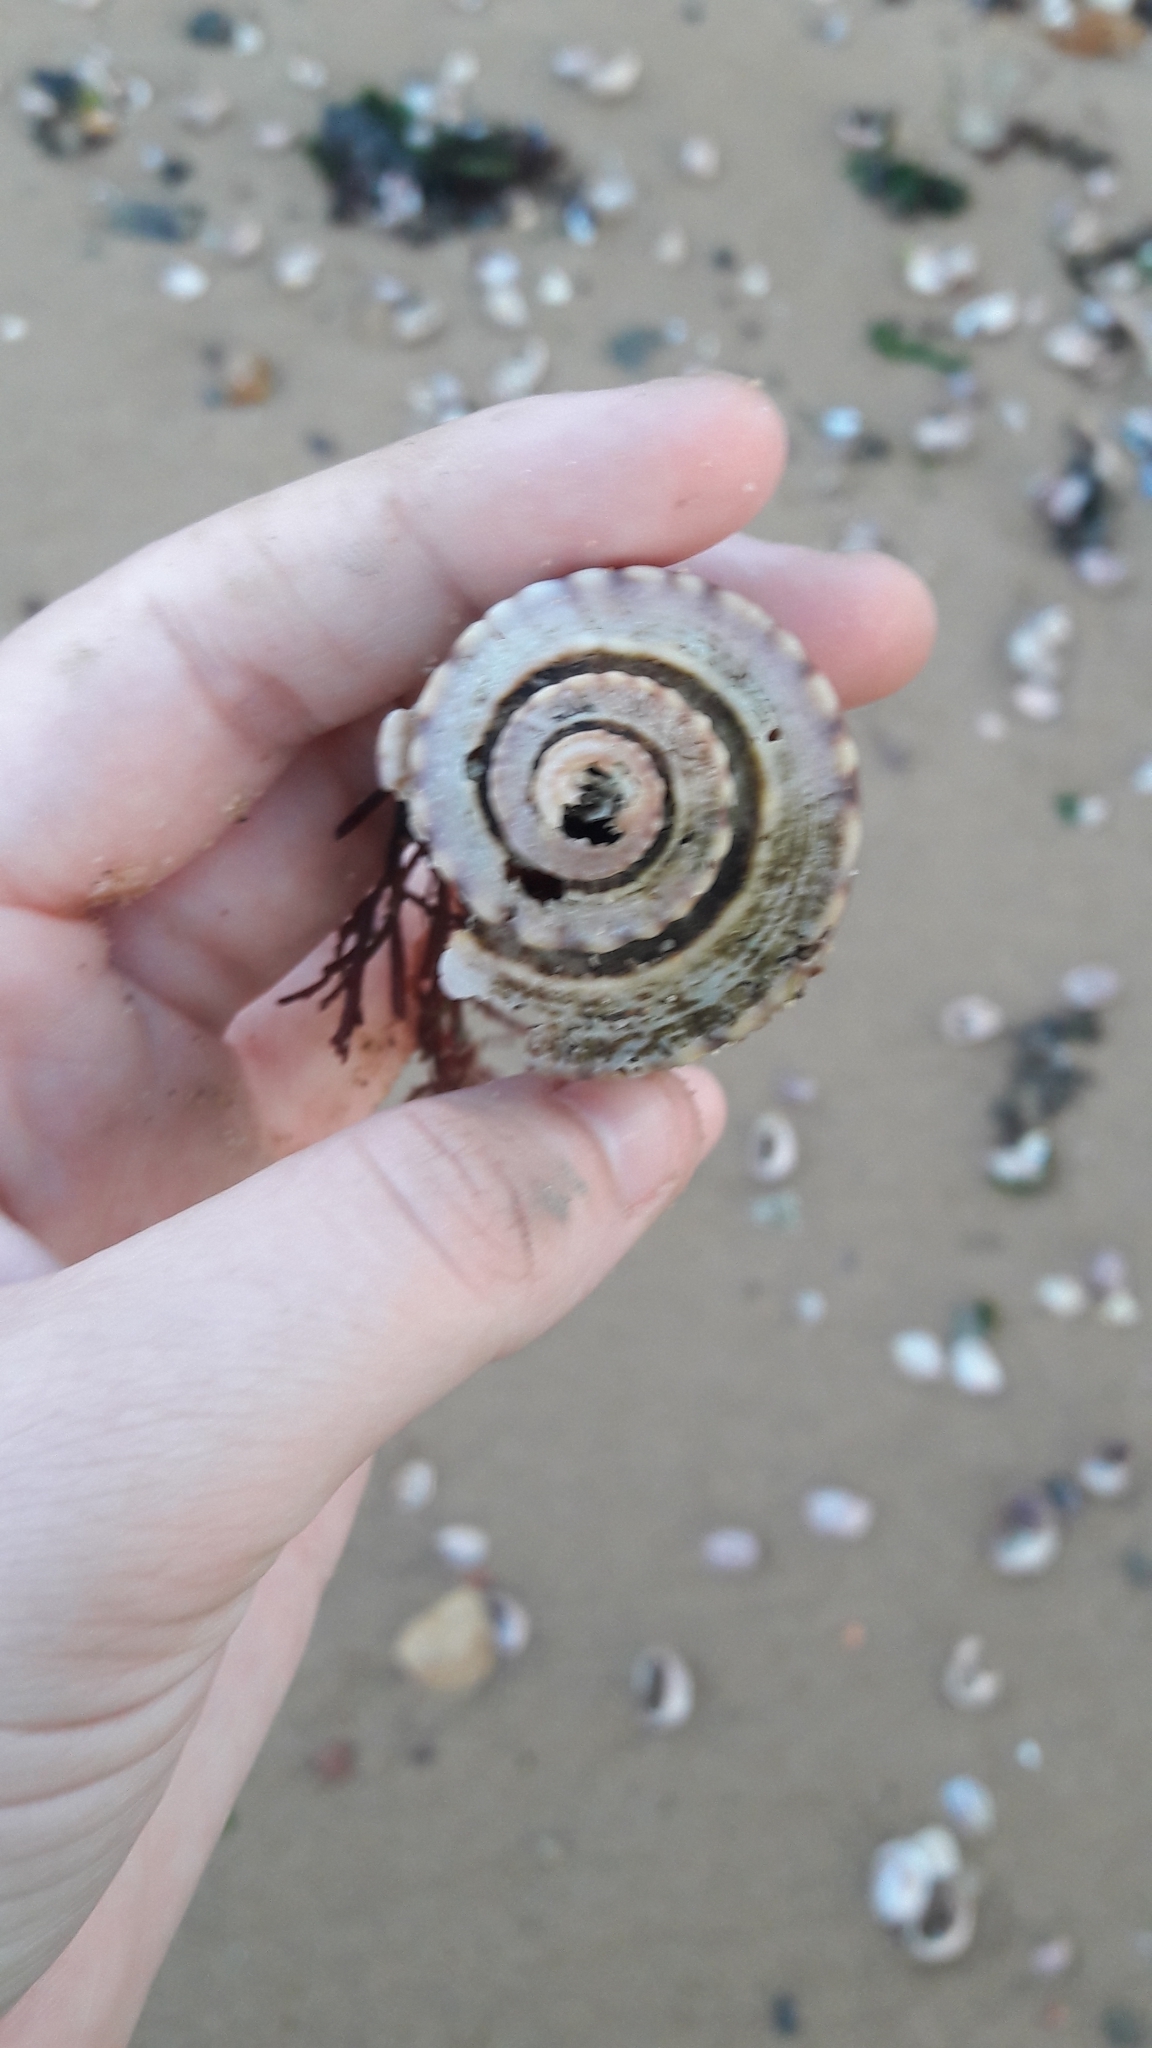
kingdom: Animalia
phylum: Mollusca
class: Gastropoda
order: Neogastropoda
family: Busyconidae
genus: Busycotypus
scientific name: Busycotypus canaliculatus
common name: Channeled whelk
